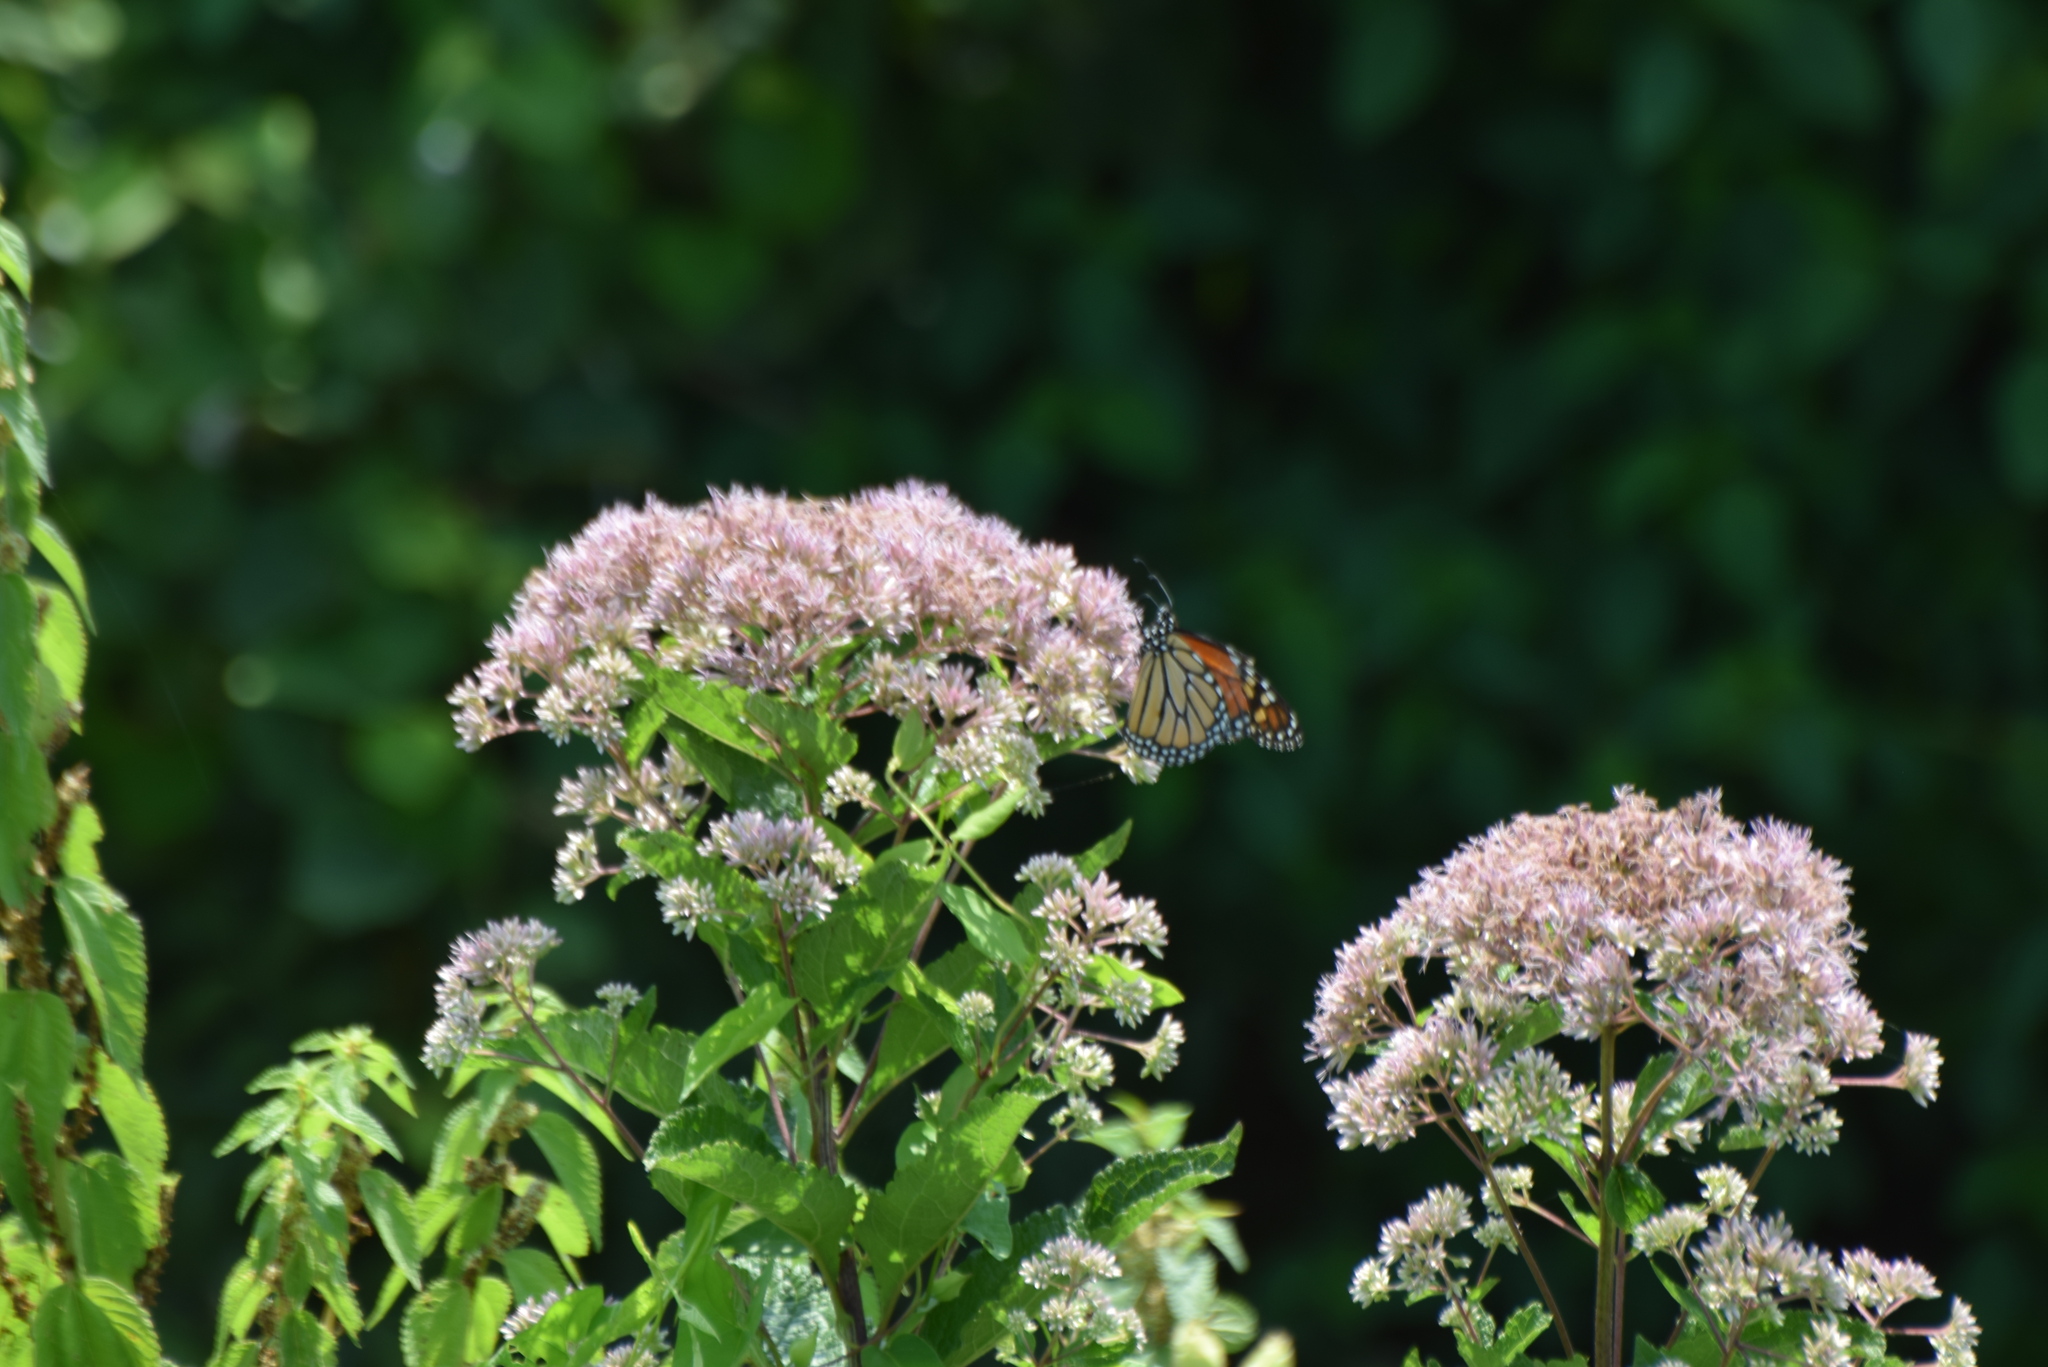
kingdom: Animalia
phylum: Arthropoda
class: Insecta
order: Lepidoptera
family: Nymphalidae
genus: Danaus
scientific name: Danaus plexippus
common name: Monarch
